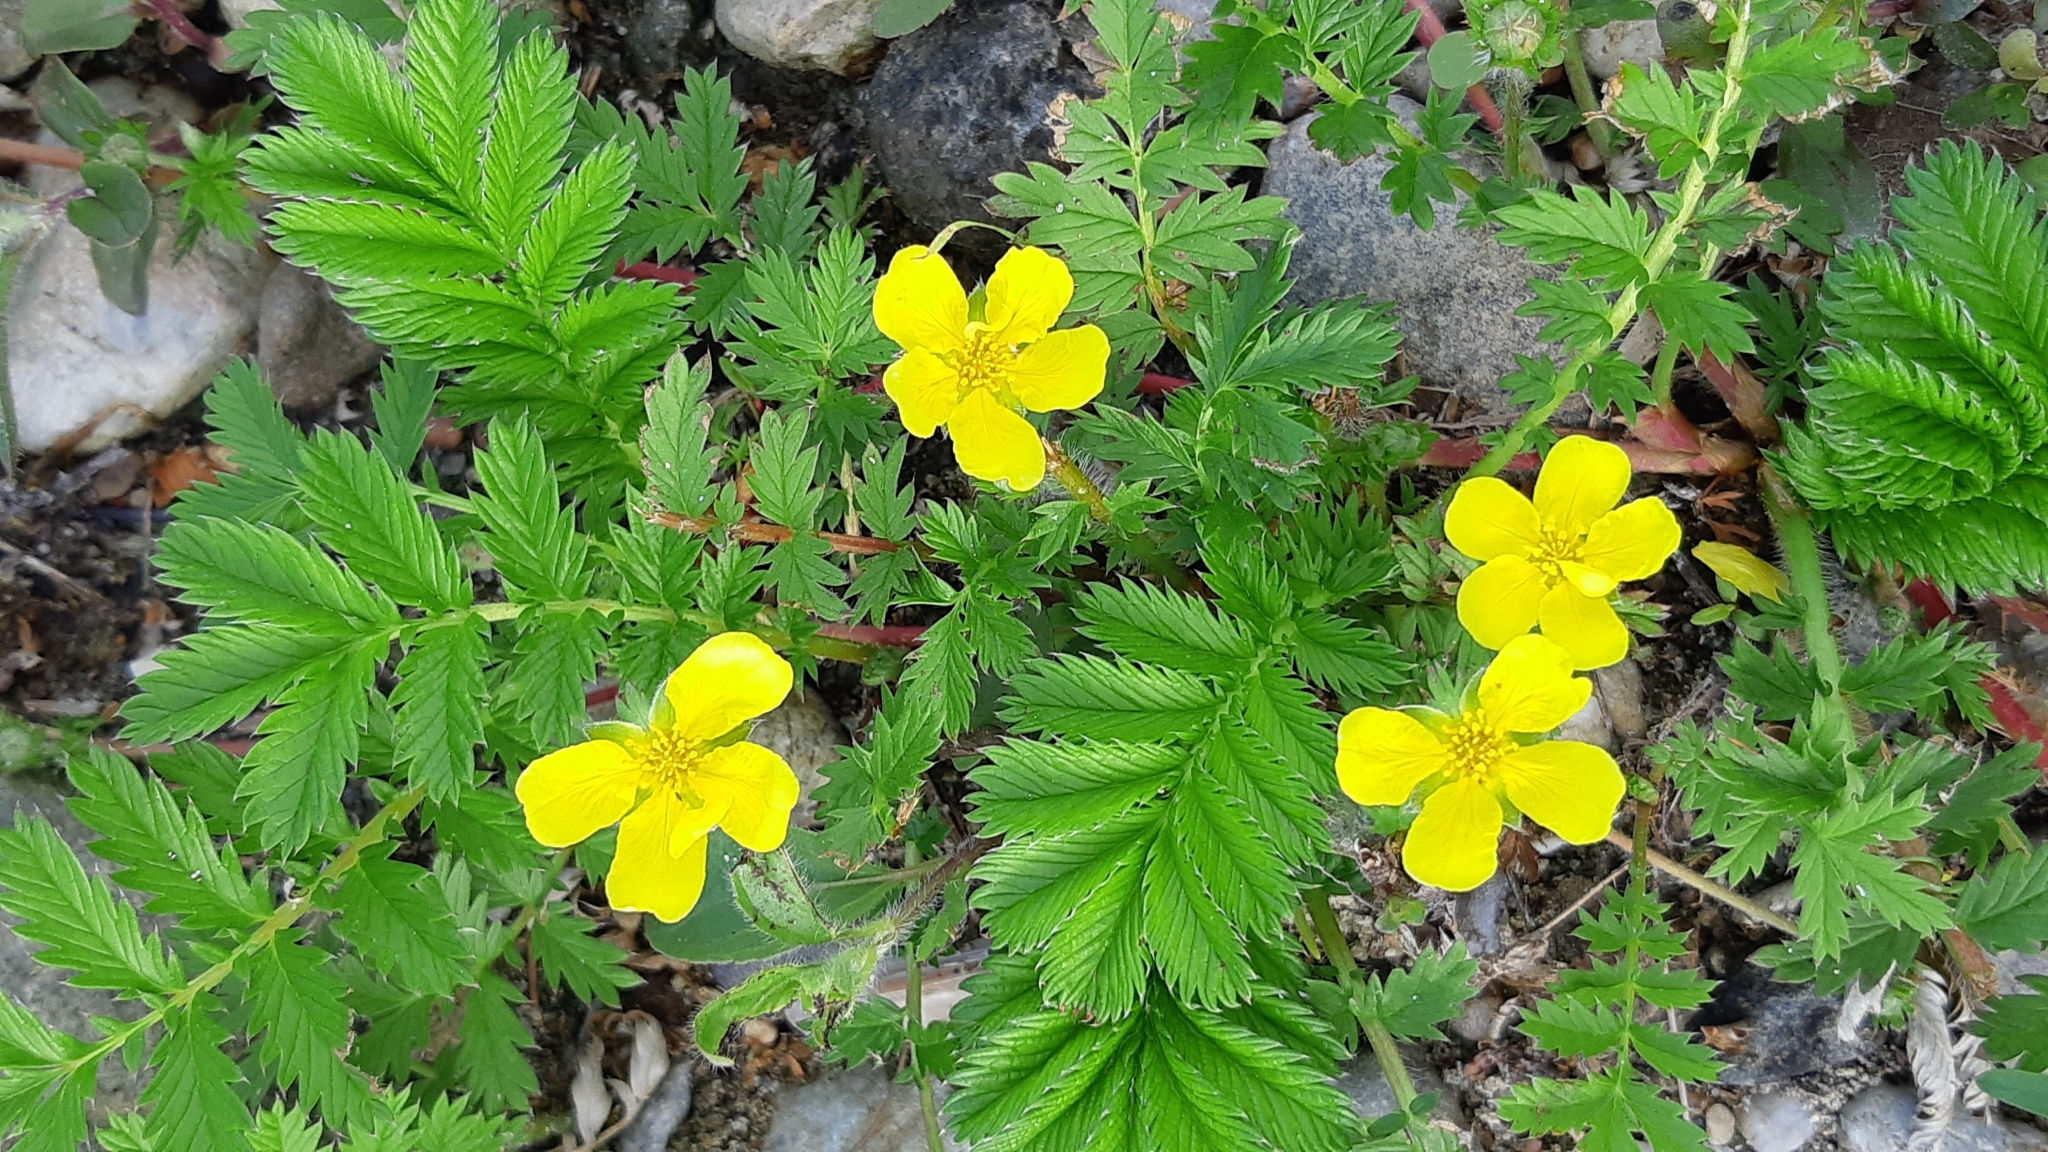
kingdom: Plantae
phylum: Tracheophyta
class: Magnoliopsida
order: Rosales
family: Rosaceae
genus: Argentina
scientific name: Argentina anserina
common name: Common silverweed
